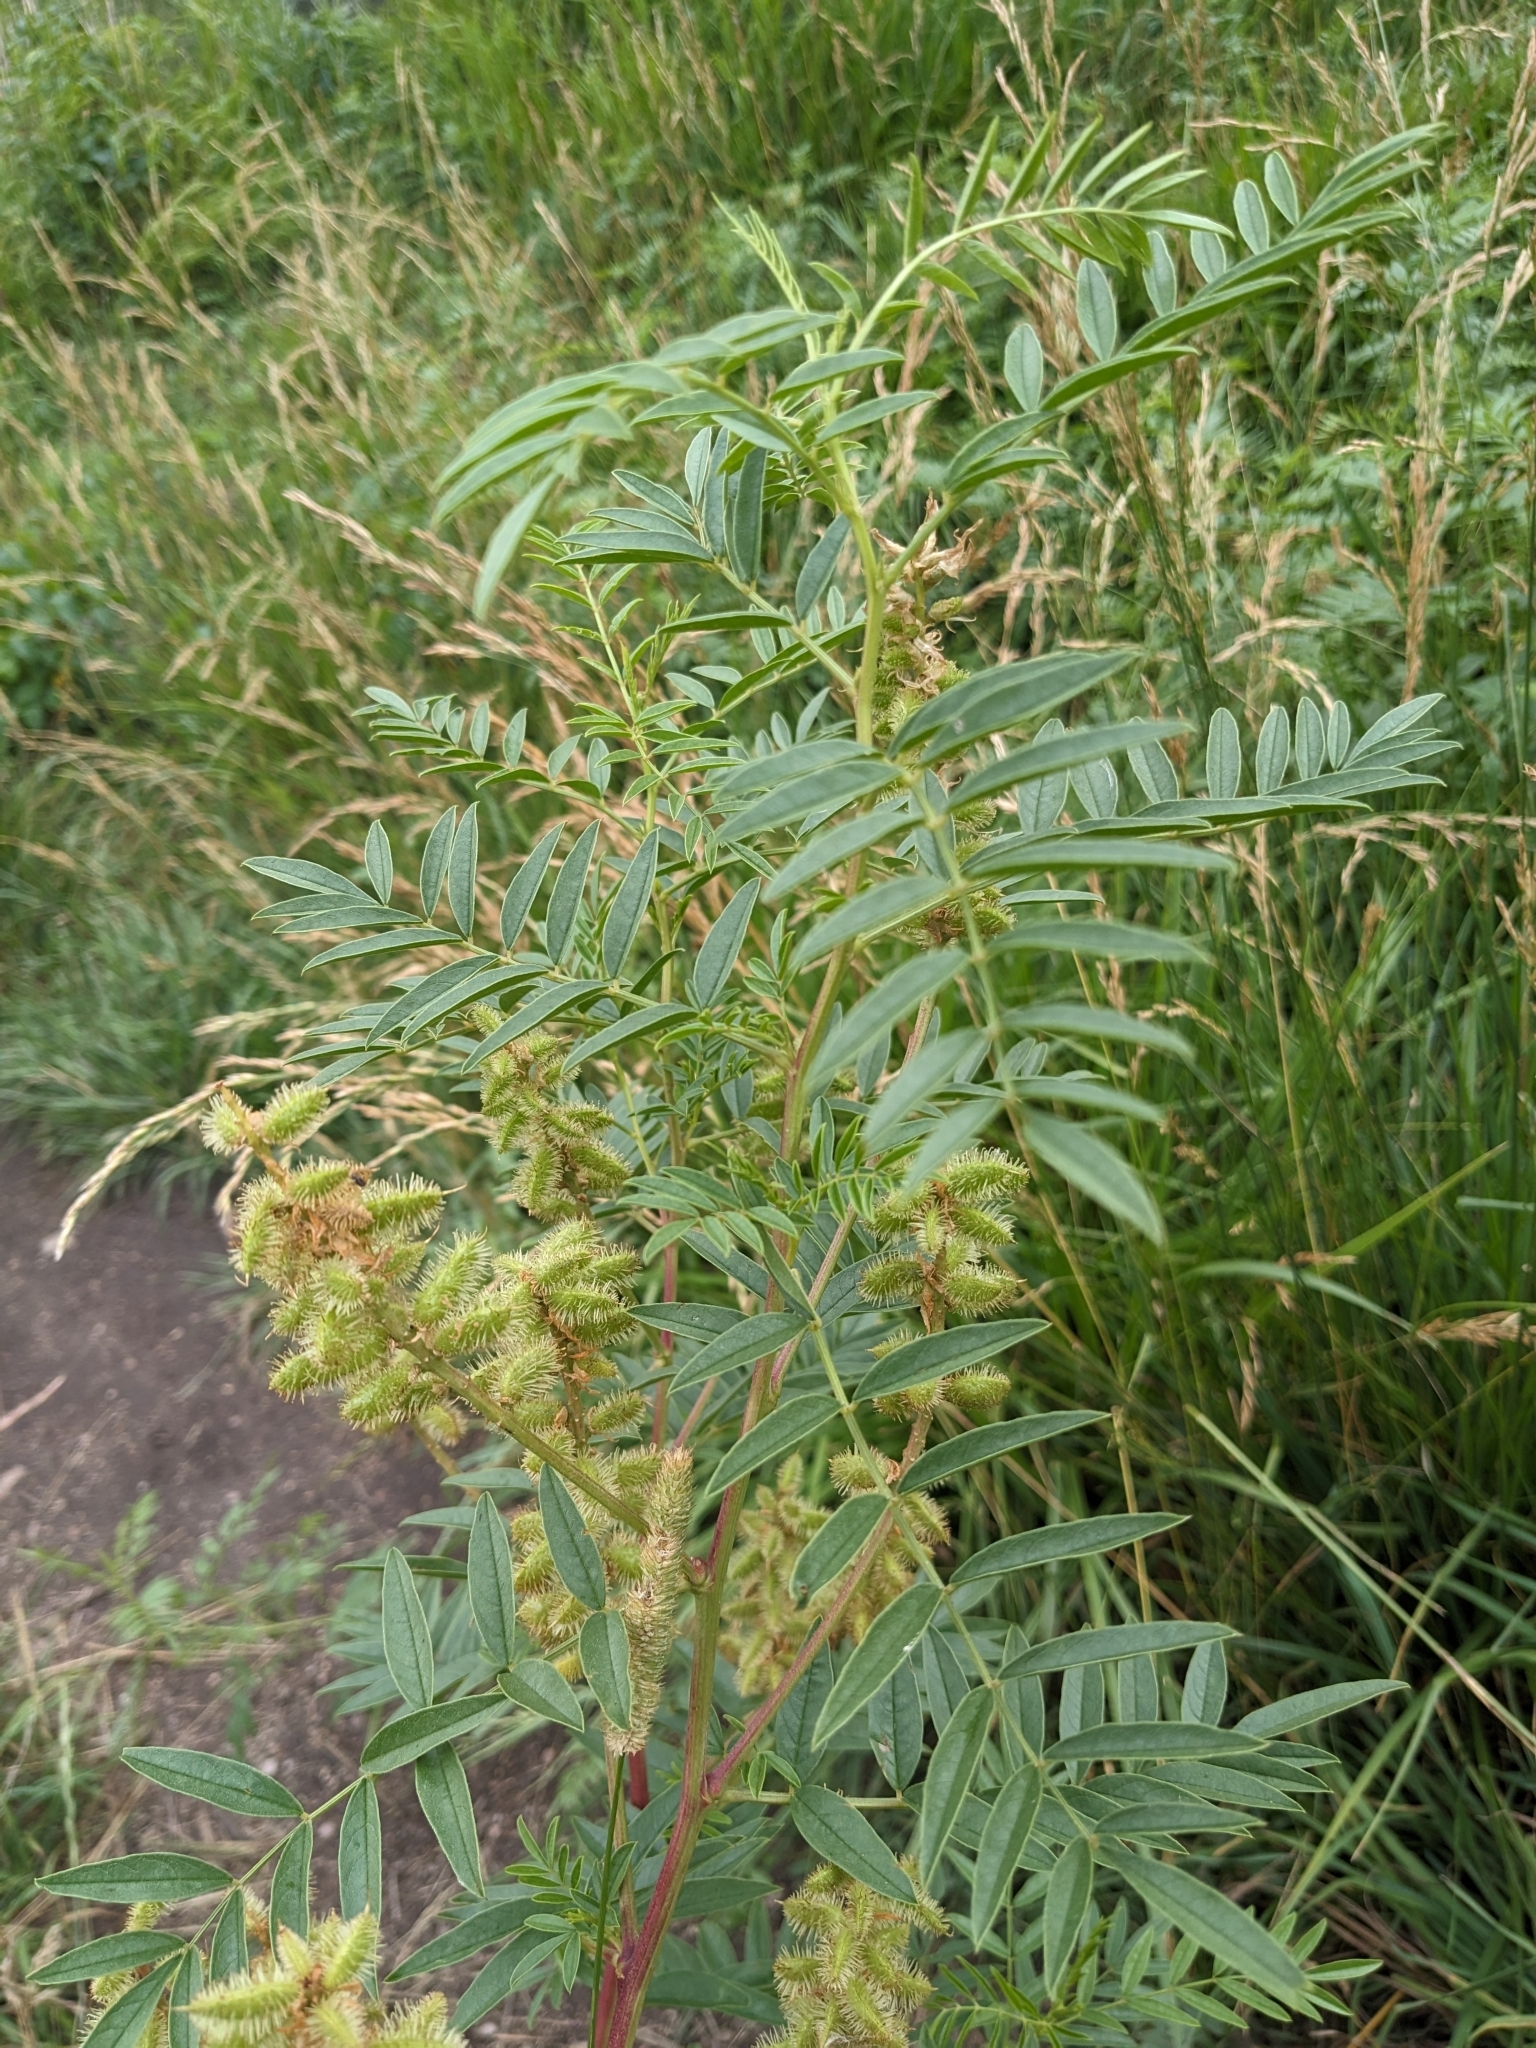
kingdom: Plantae
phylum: Tracheophyta
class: Magnoliopsida
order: Fabales
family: Fabaceae
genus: Glycyrrhiza
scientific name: Glycyrrhiza lepidota
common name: American liquorice
